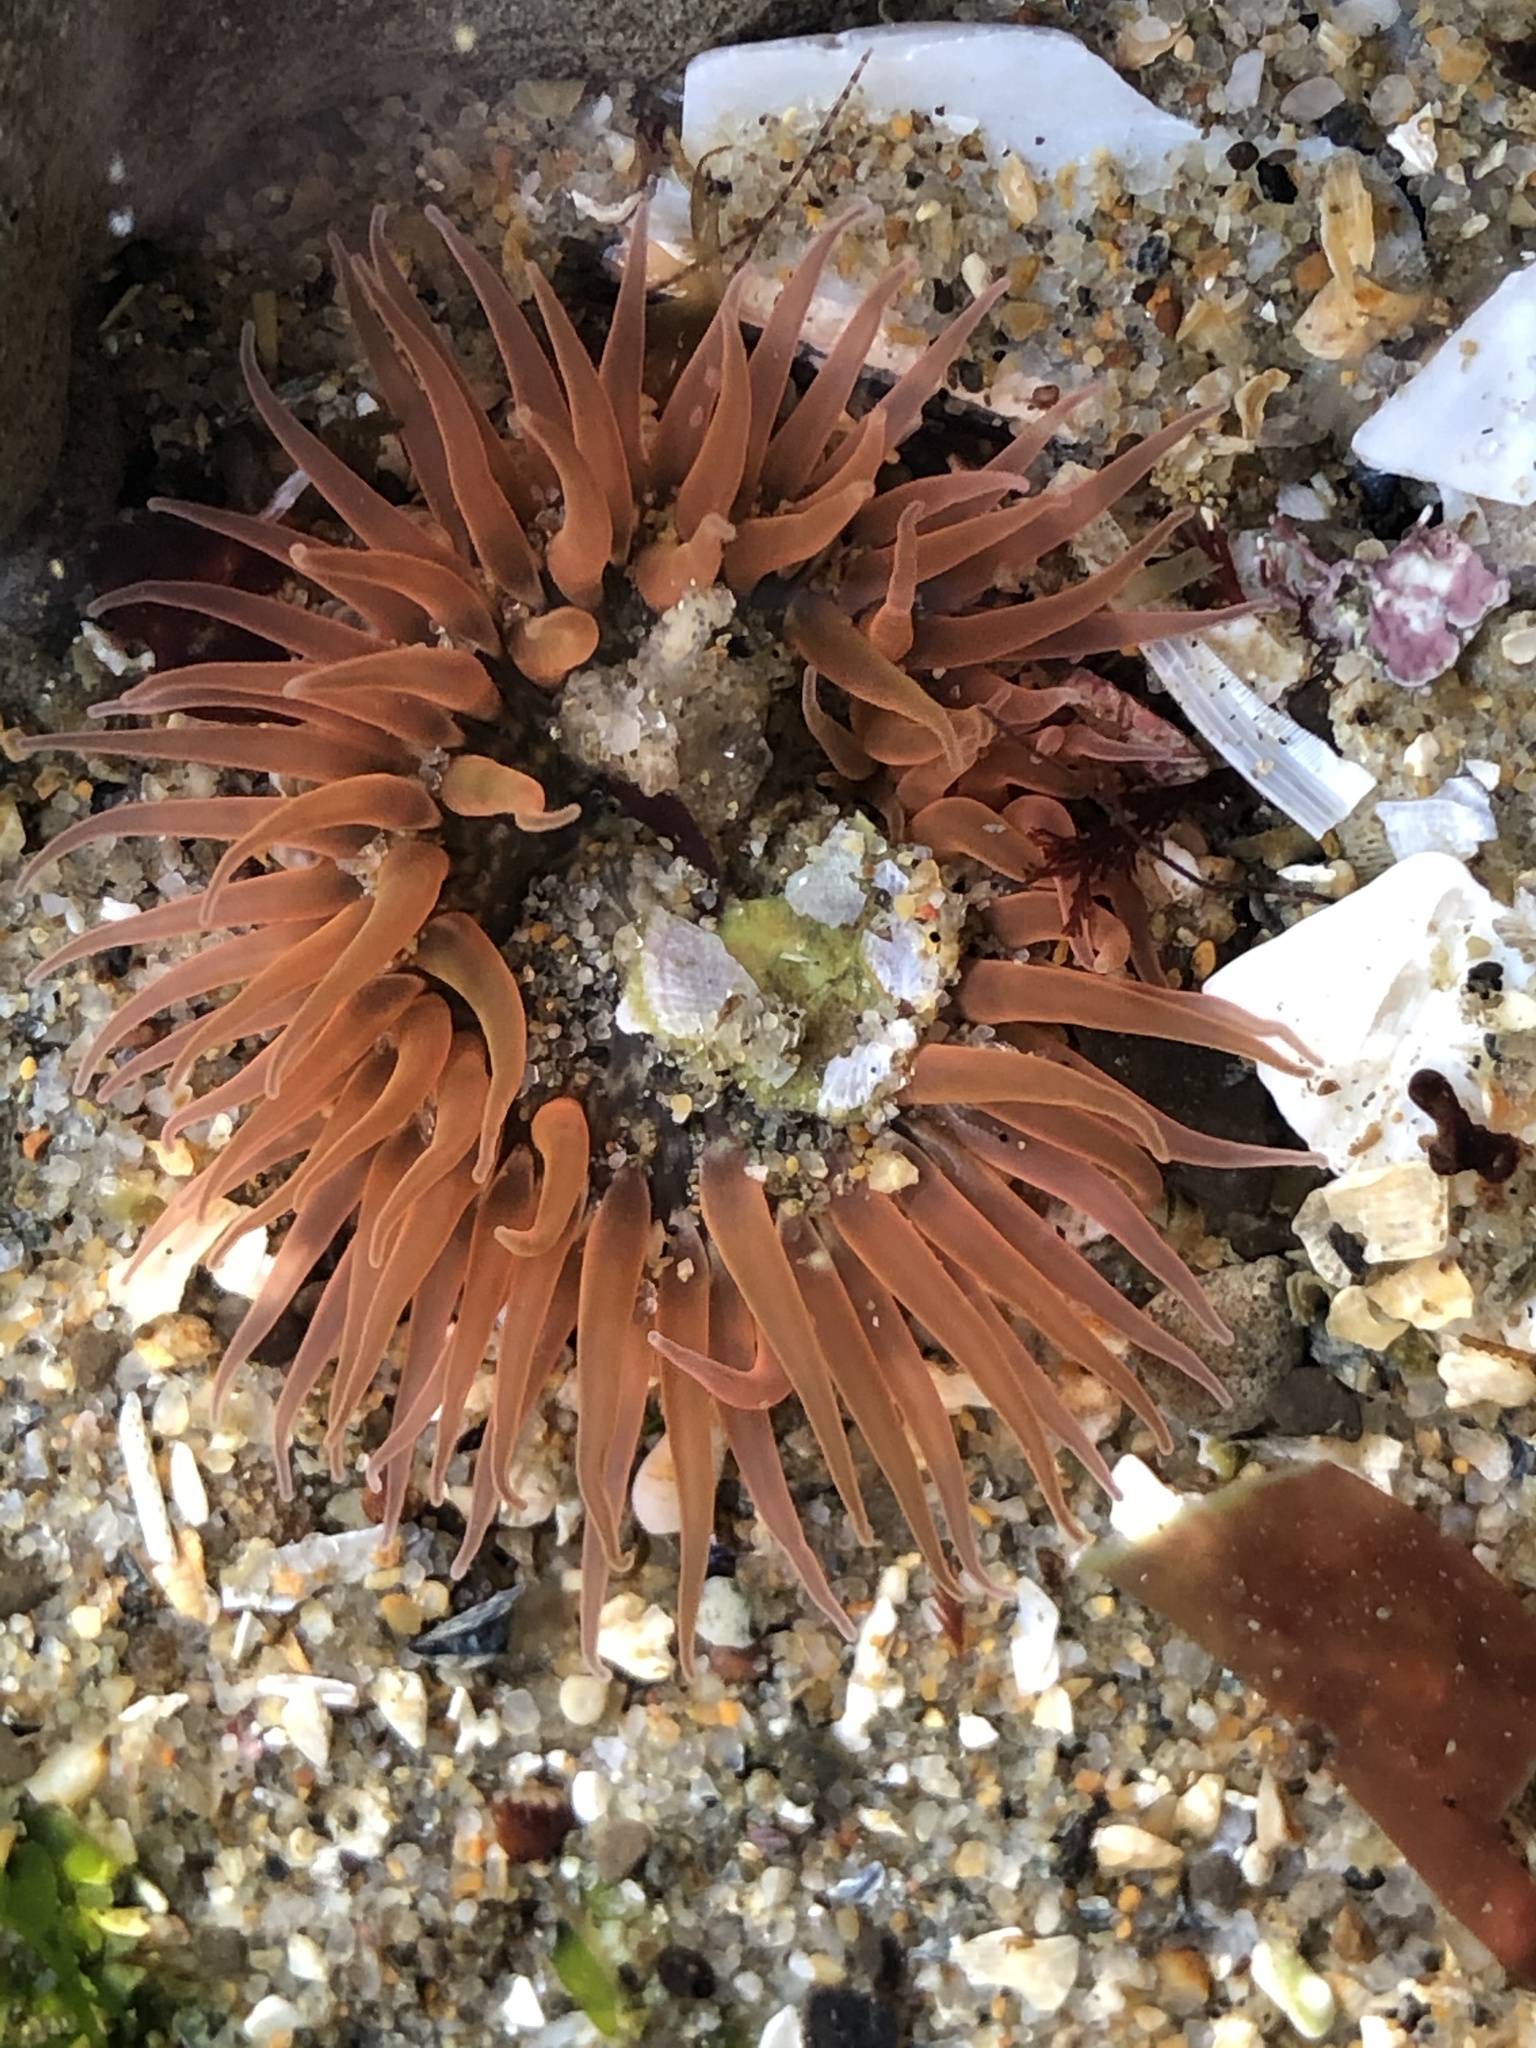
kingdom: Animalia
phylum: Cnidaria
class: Anthozoa
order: Actiniaria
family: Actiniidae
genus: Anthopleura
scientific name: Anthopleura artemisia
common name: Buried sea anemone
